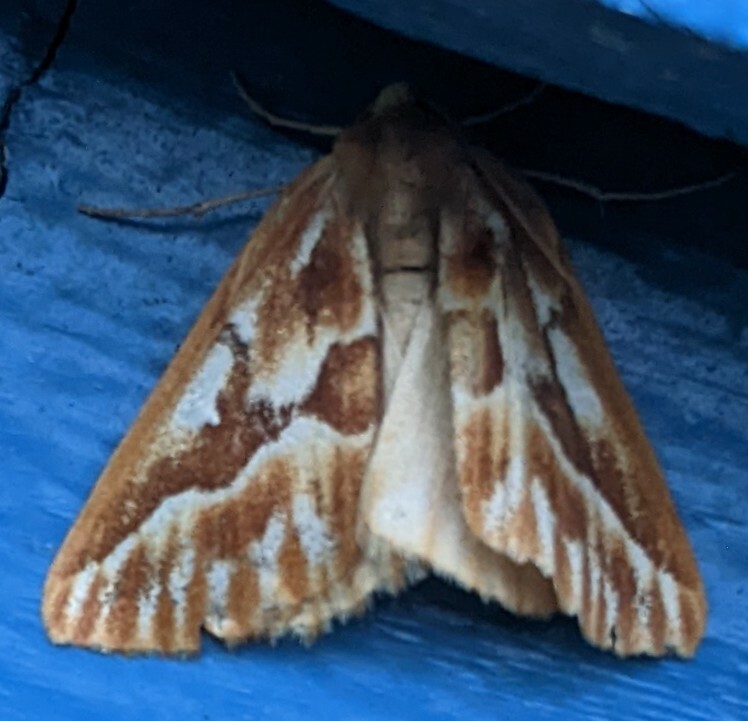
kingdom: Animalia
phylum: Arthropoda
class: Insecta
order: Lepidoptera
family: Geometridae
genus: Caripeta
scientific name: Caripeta piniata
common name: Northern pine looper moth
